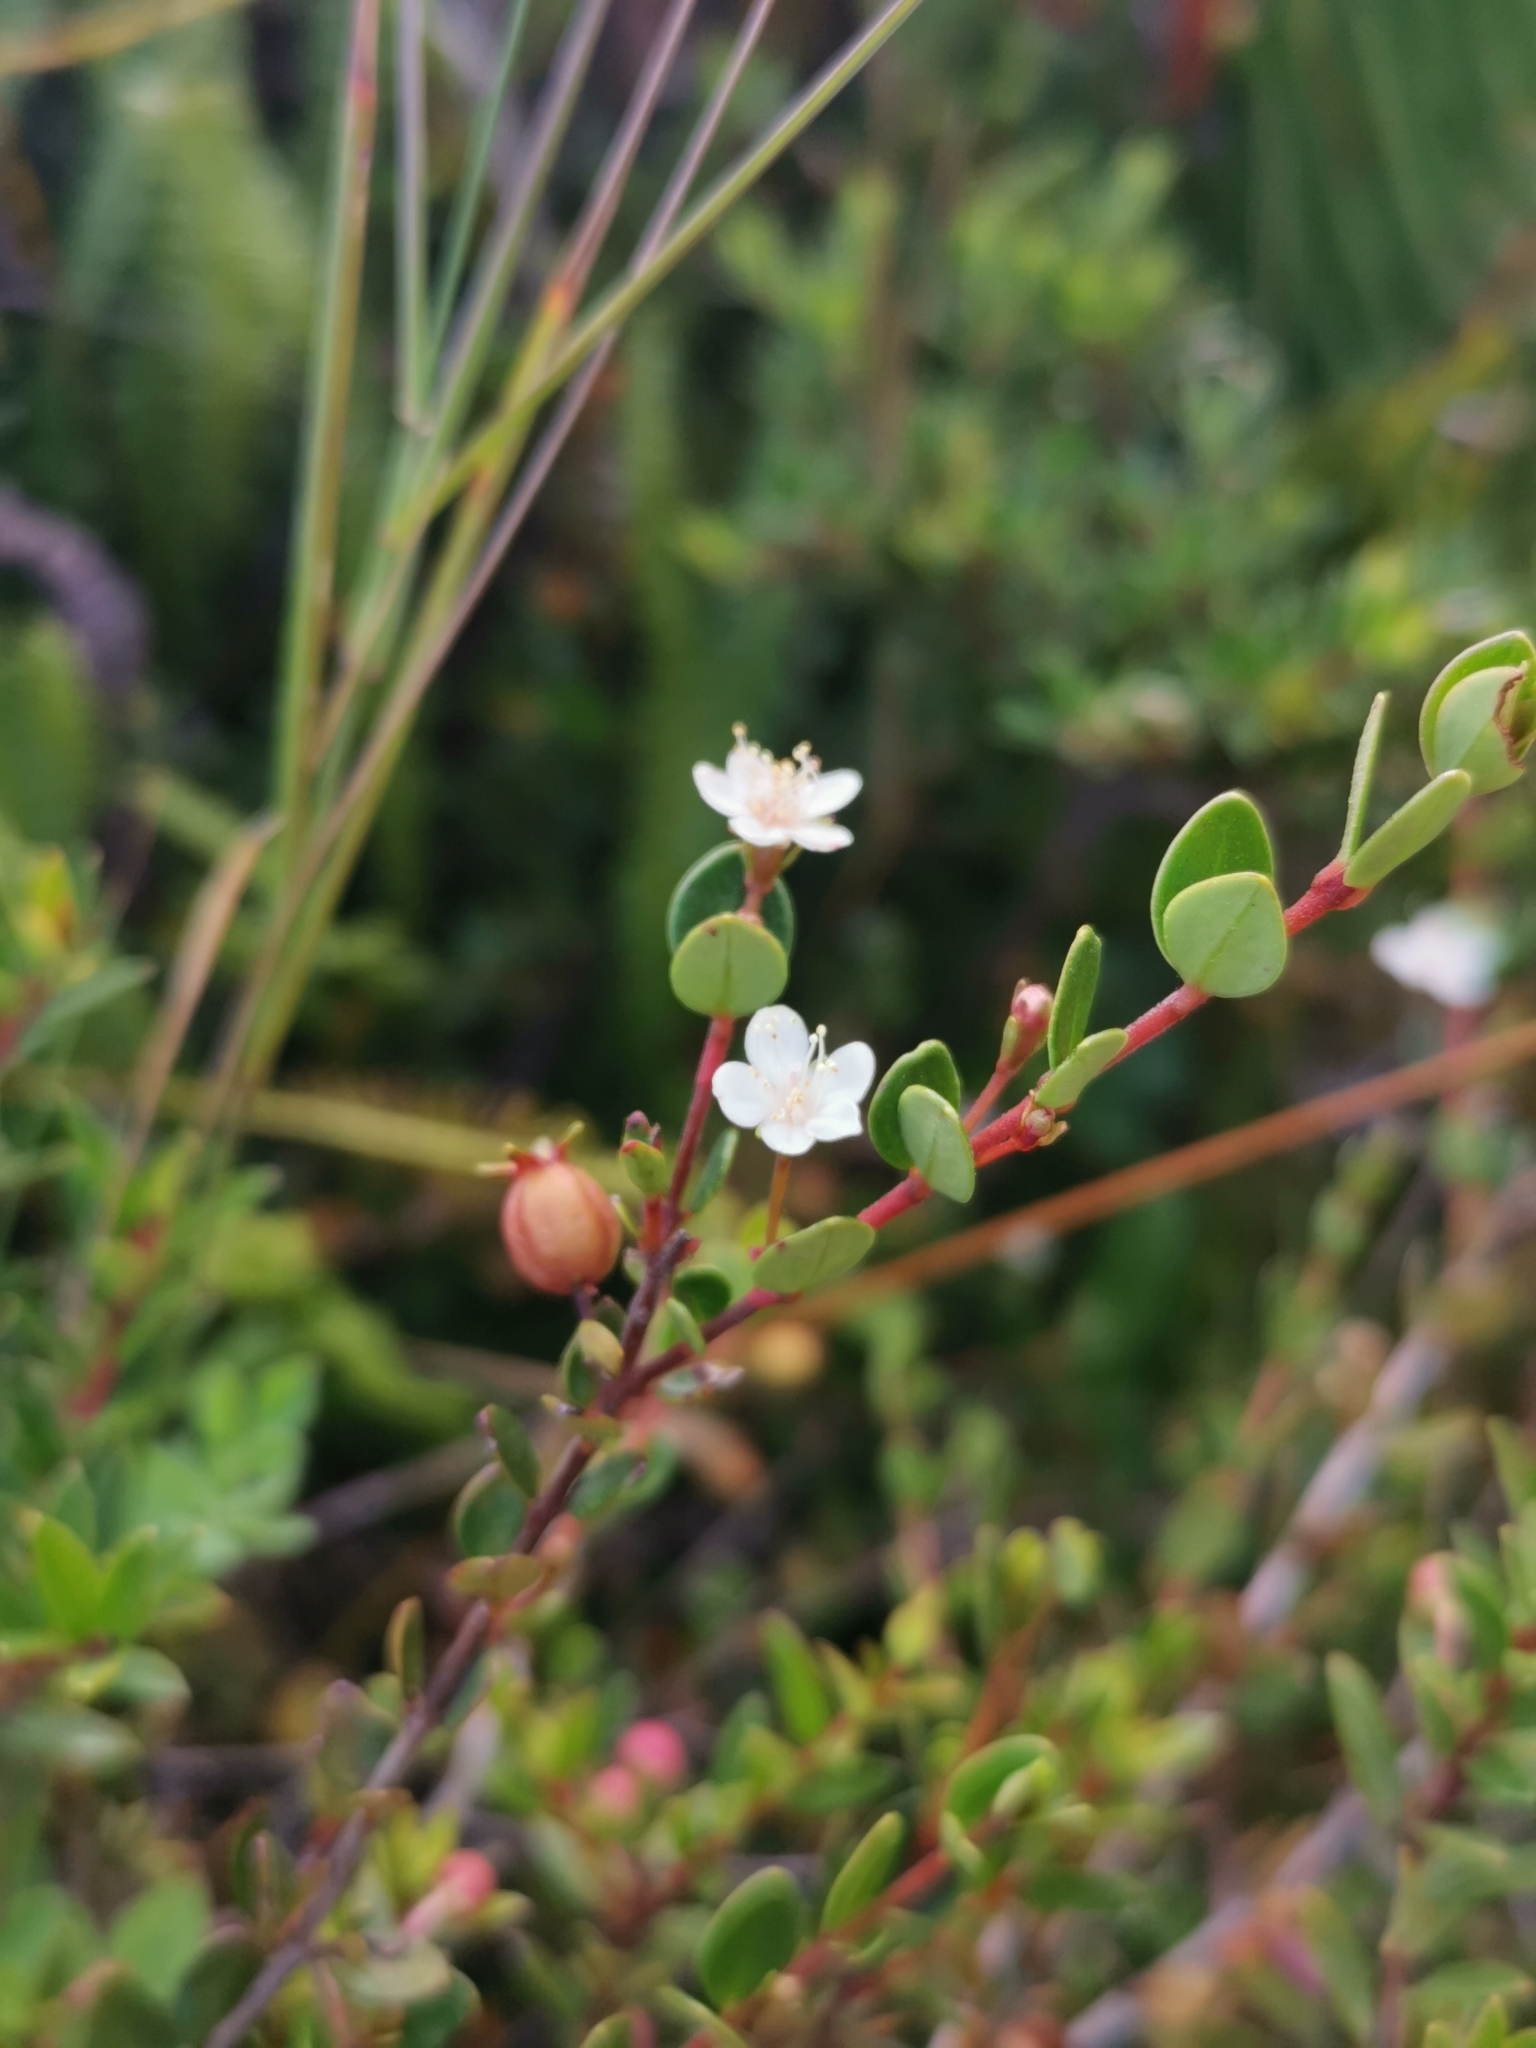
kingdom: Plantae
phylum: Tracheophyta
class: Magnoliopsida
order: Myrtales
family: Myrtaceae
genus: Myrteola
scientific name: Myrteola nummularia
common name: Cranberry-myrtle
